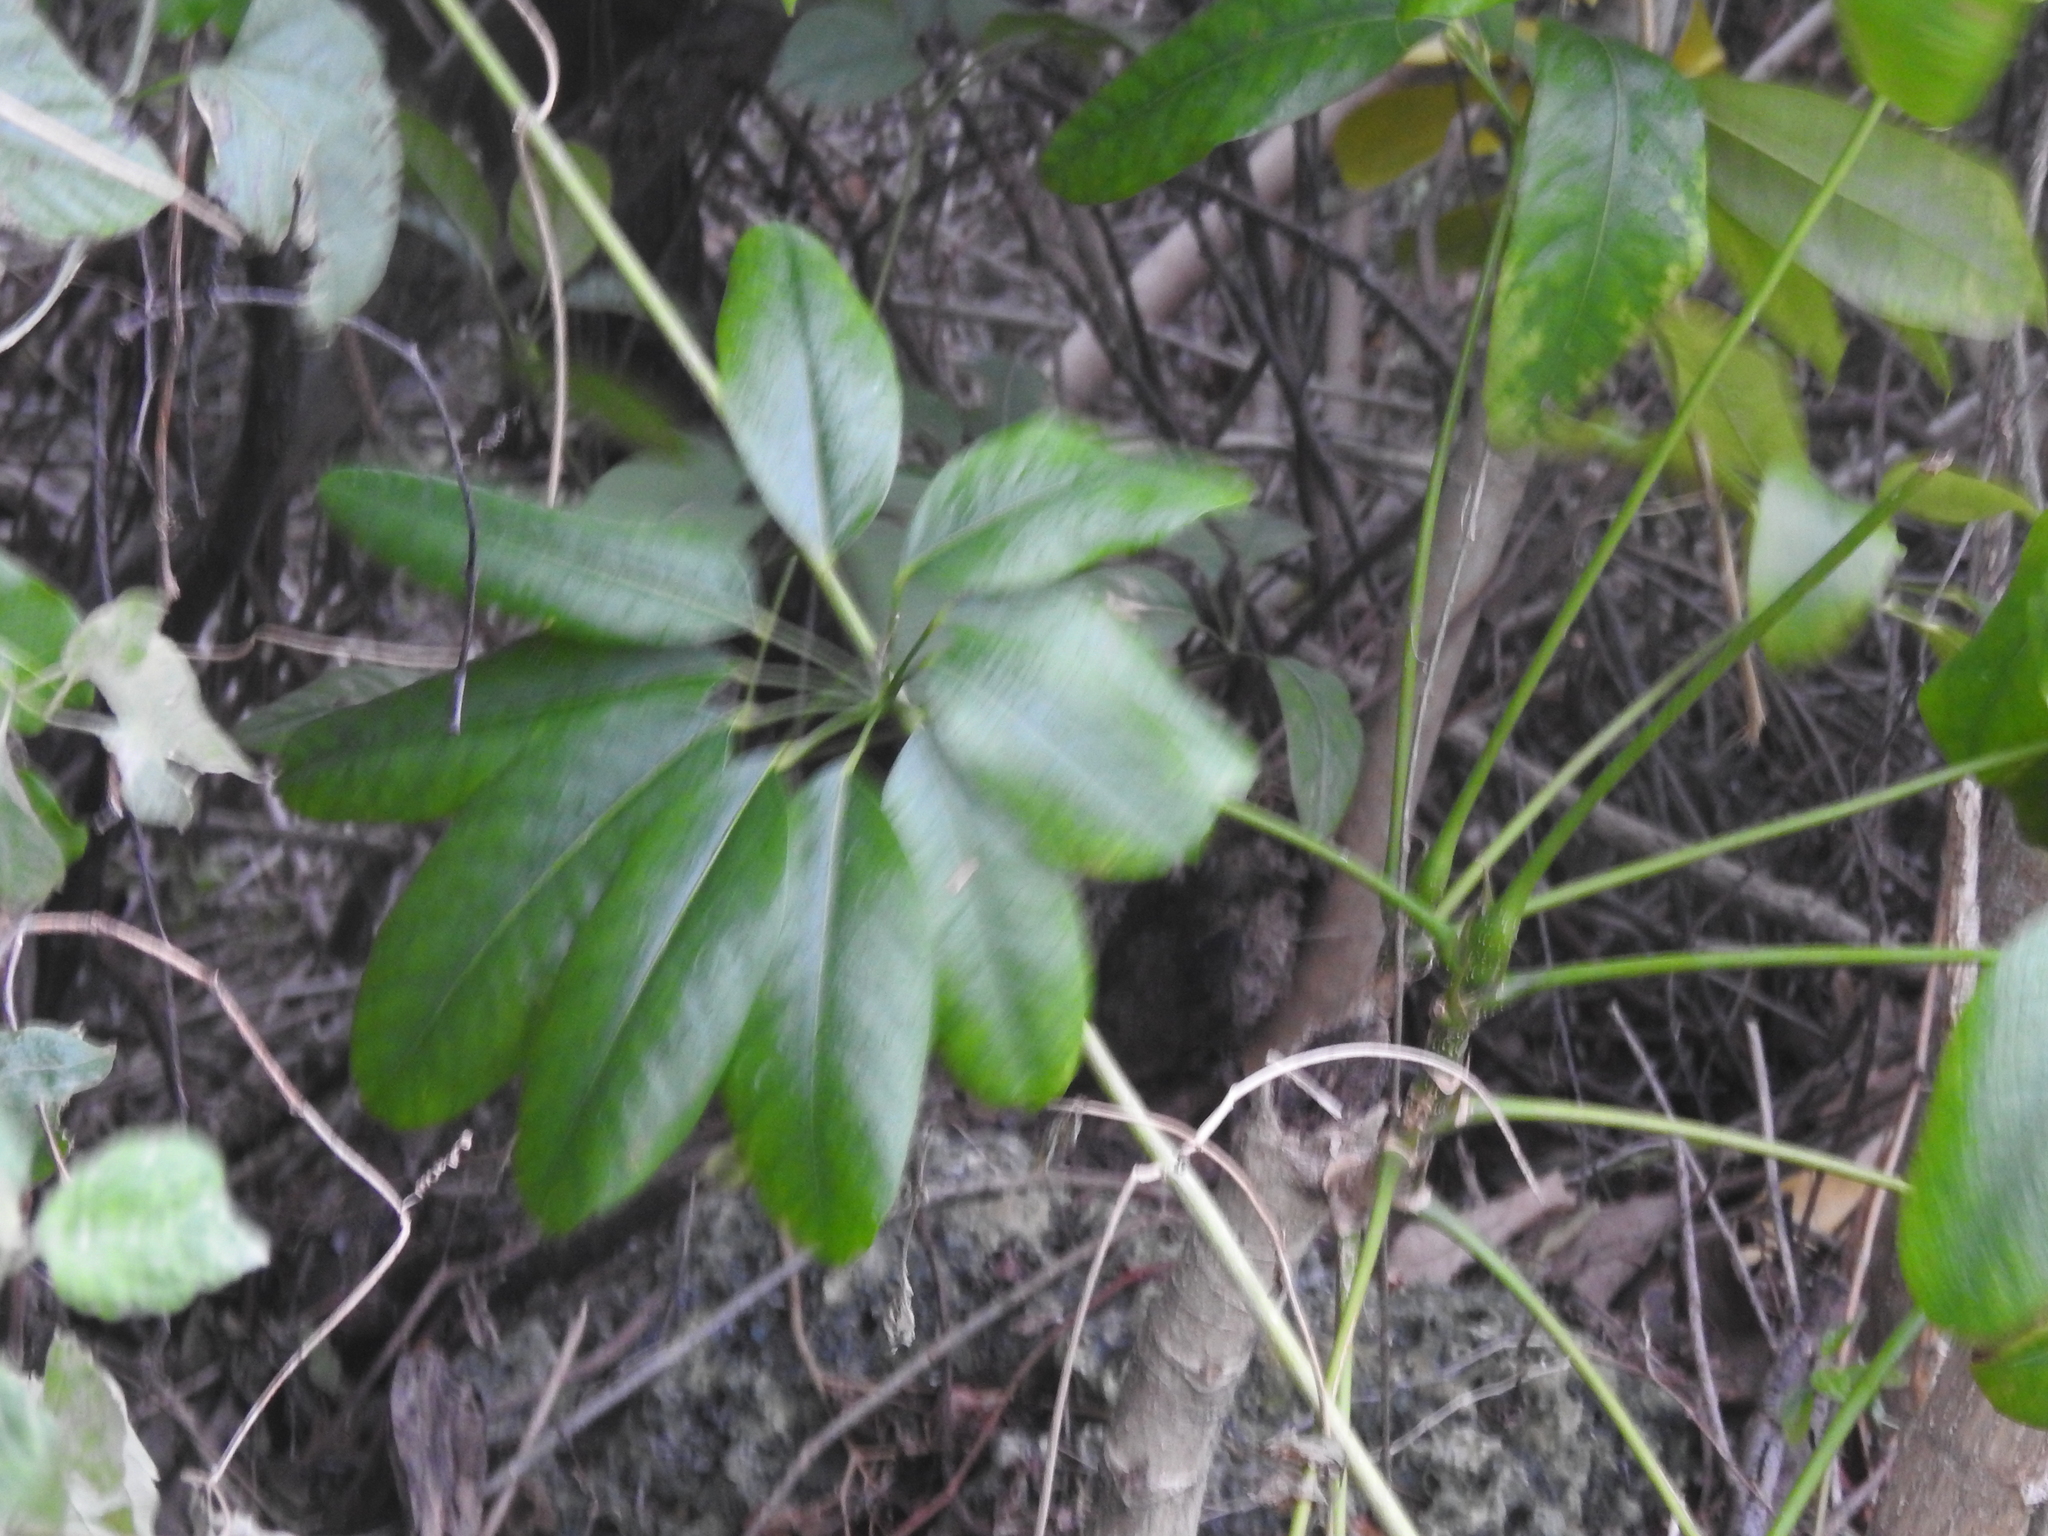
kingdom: Plantae
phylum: Tracheophyta
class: Magnoliopsida
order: Apiales
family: Araliaceae
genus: Heptapleurum
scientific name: Heptapleurum actinophyllum
